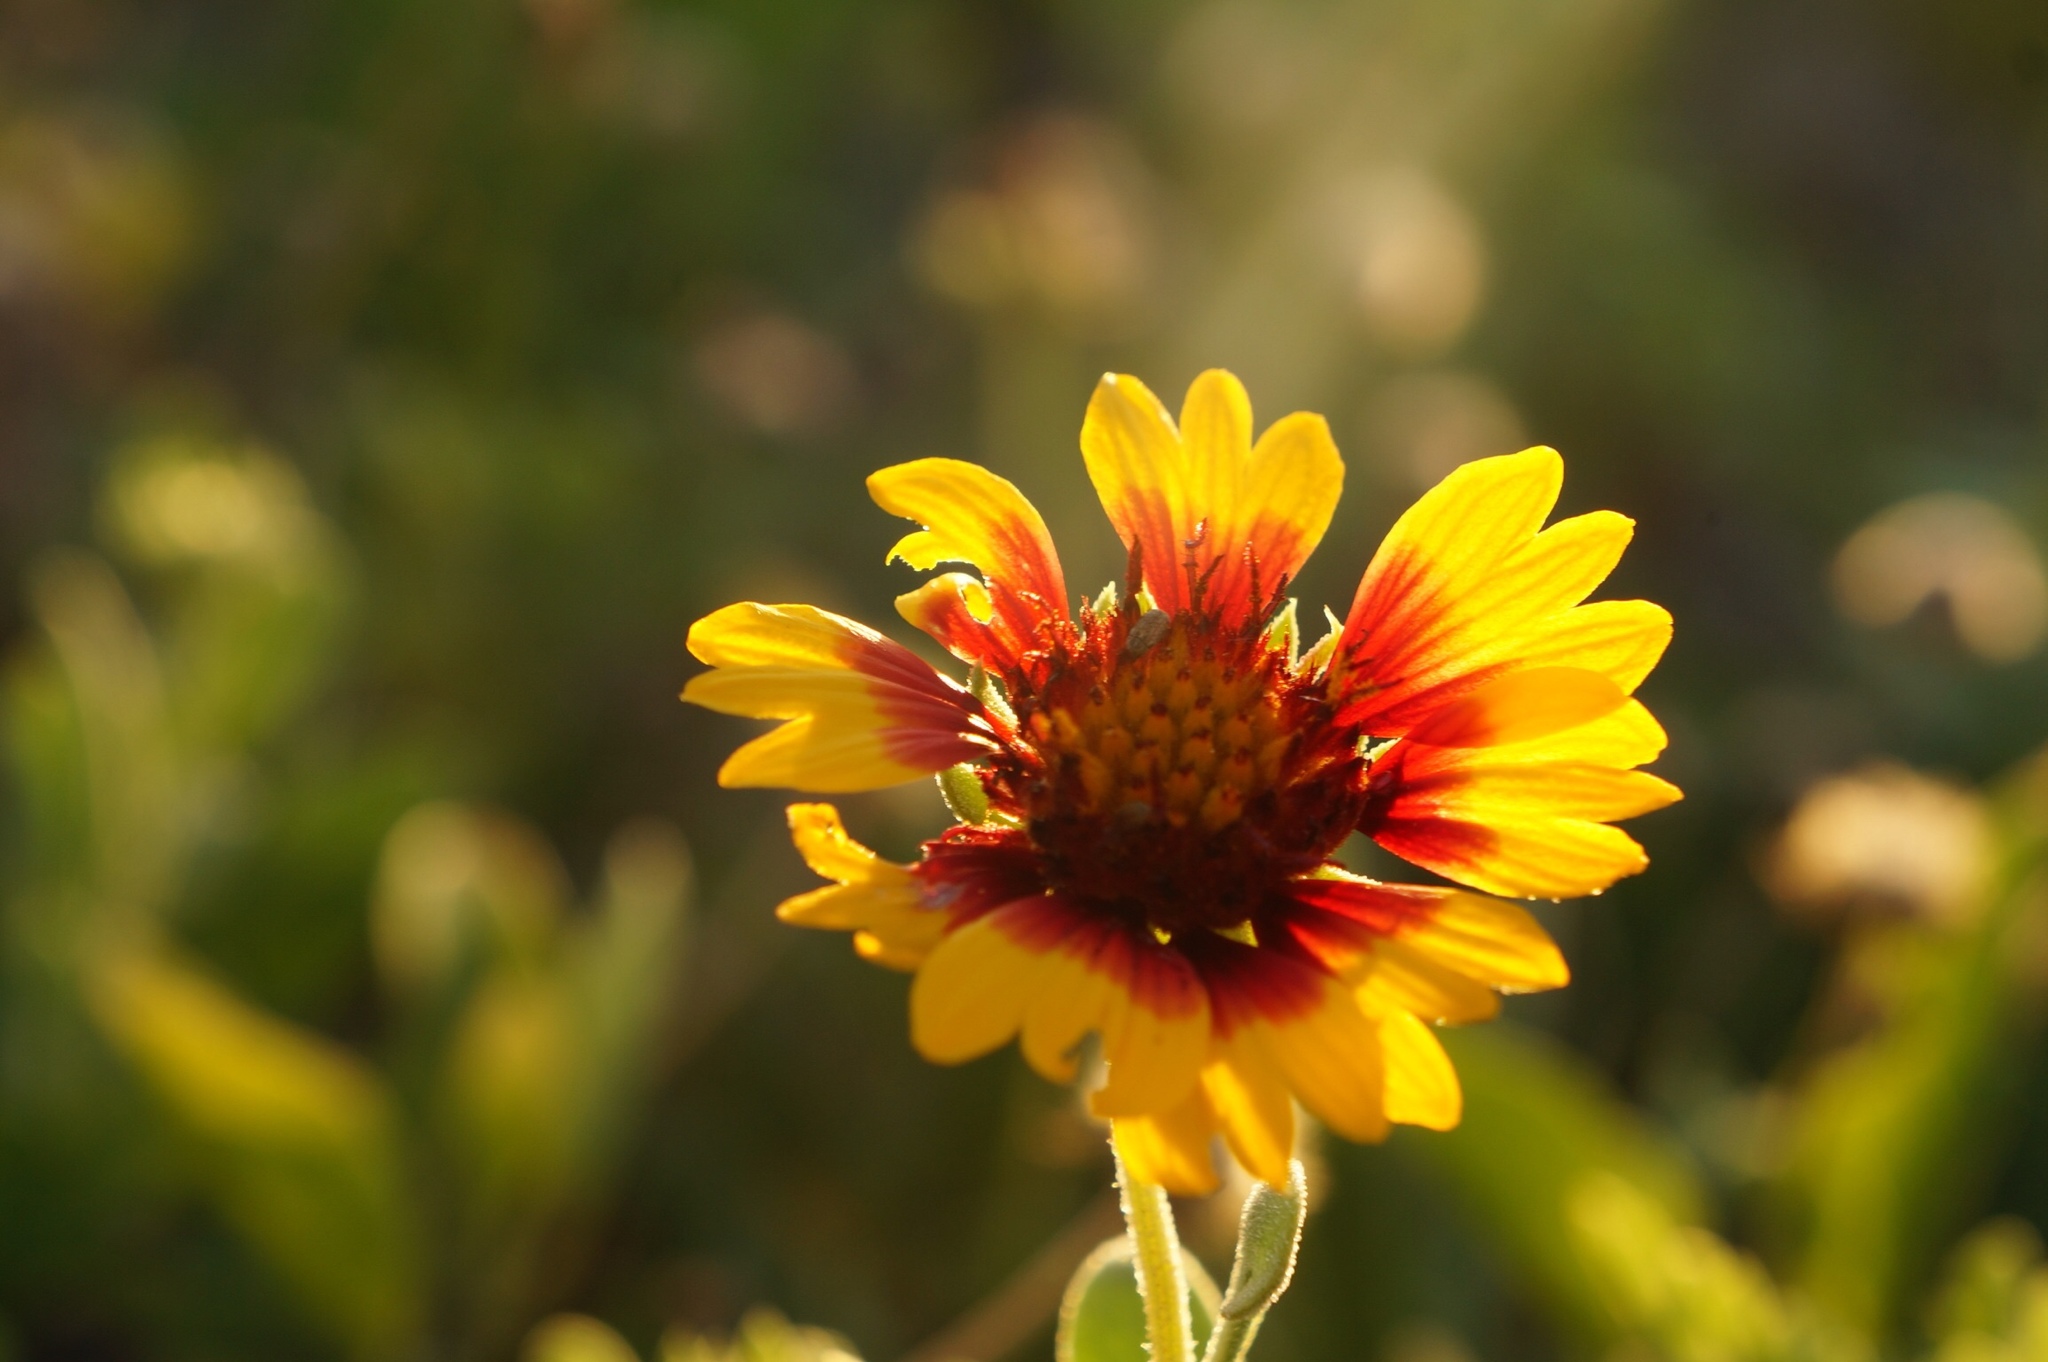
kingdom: Plantae
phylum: Tracheophyta
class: Magnoliopsida
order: Asterales
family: Asteraceae
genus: Gaillardia
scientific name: Gaillardia pulchella
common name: Firewheel
